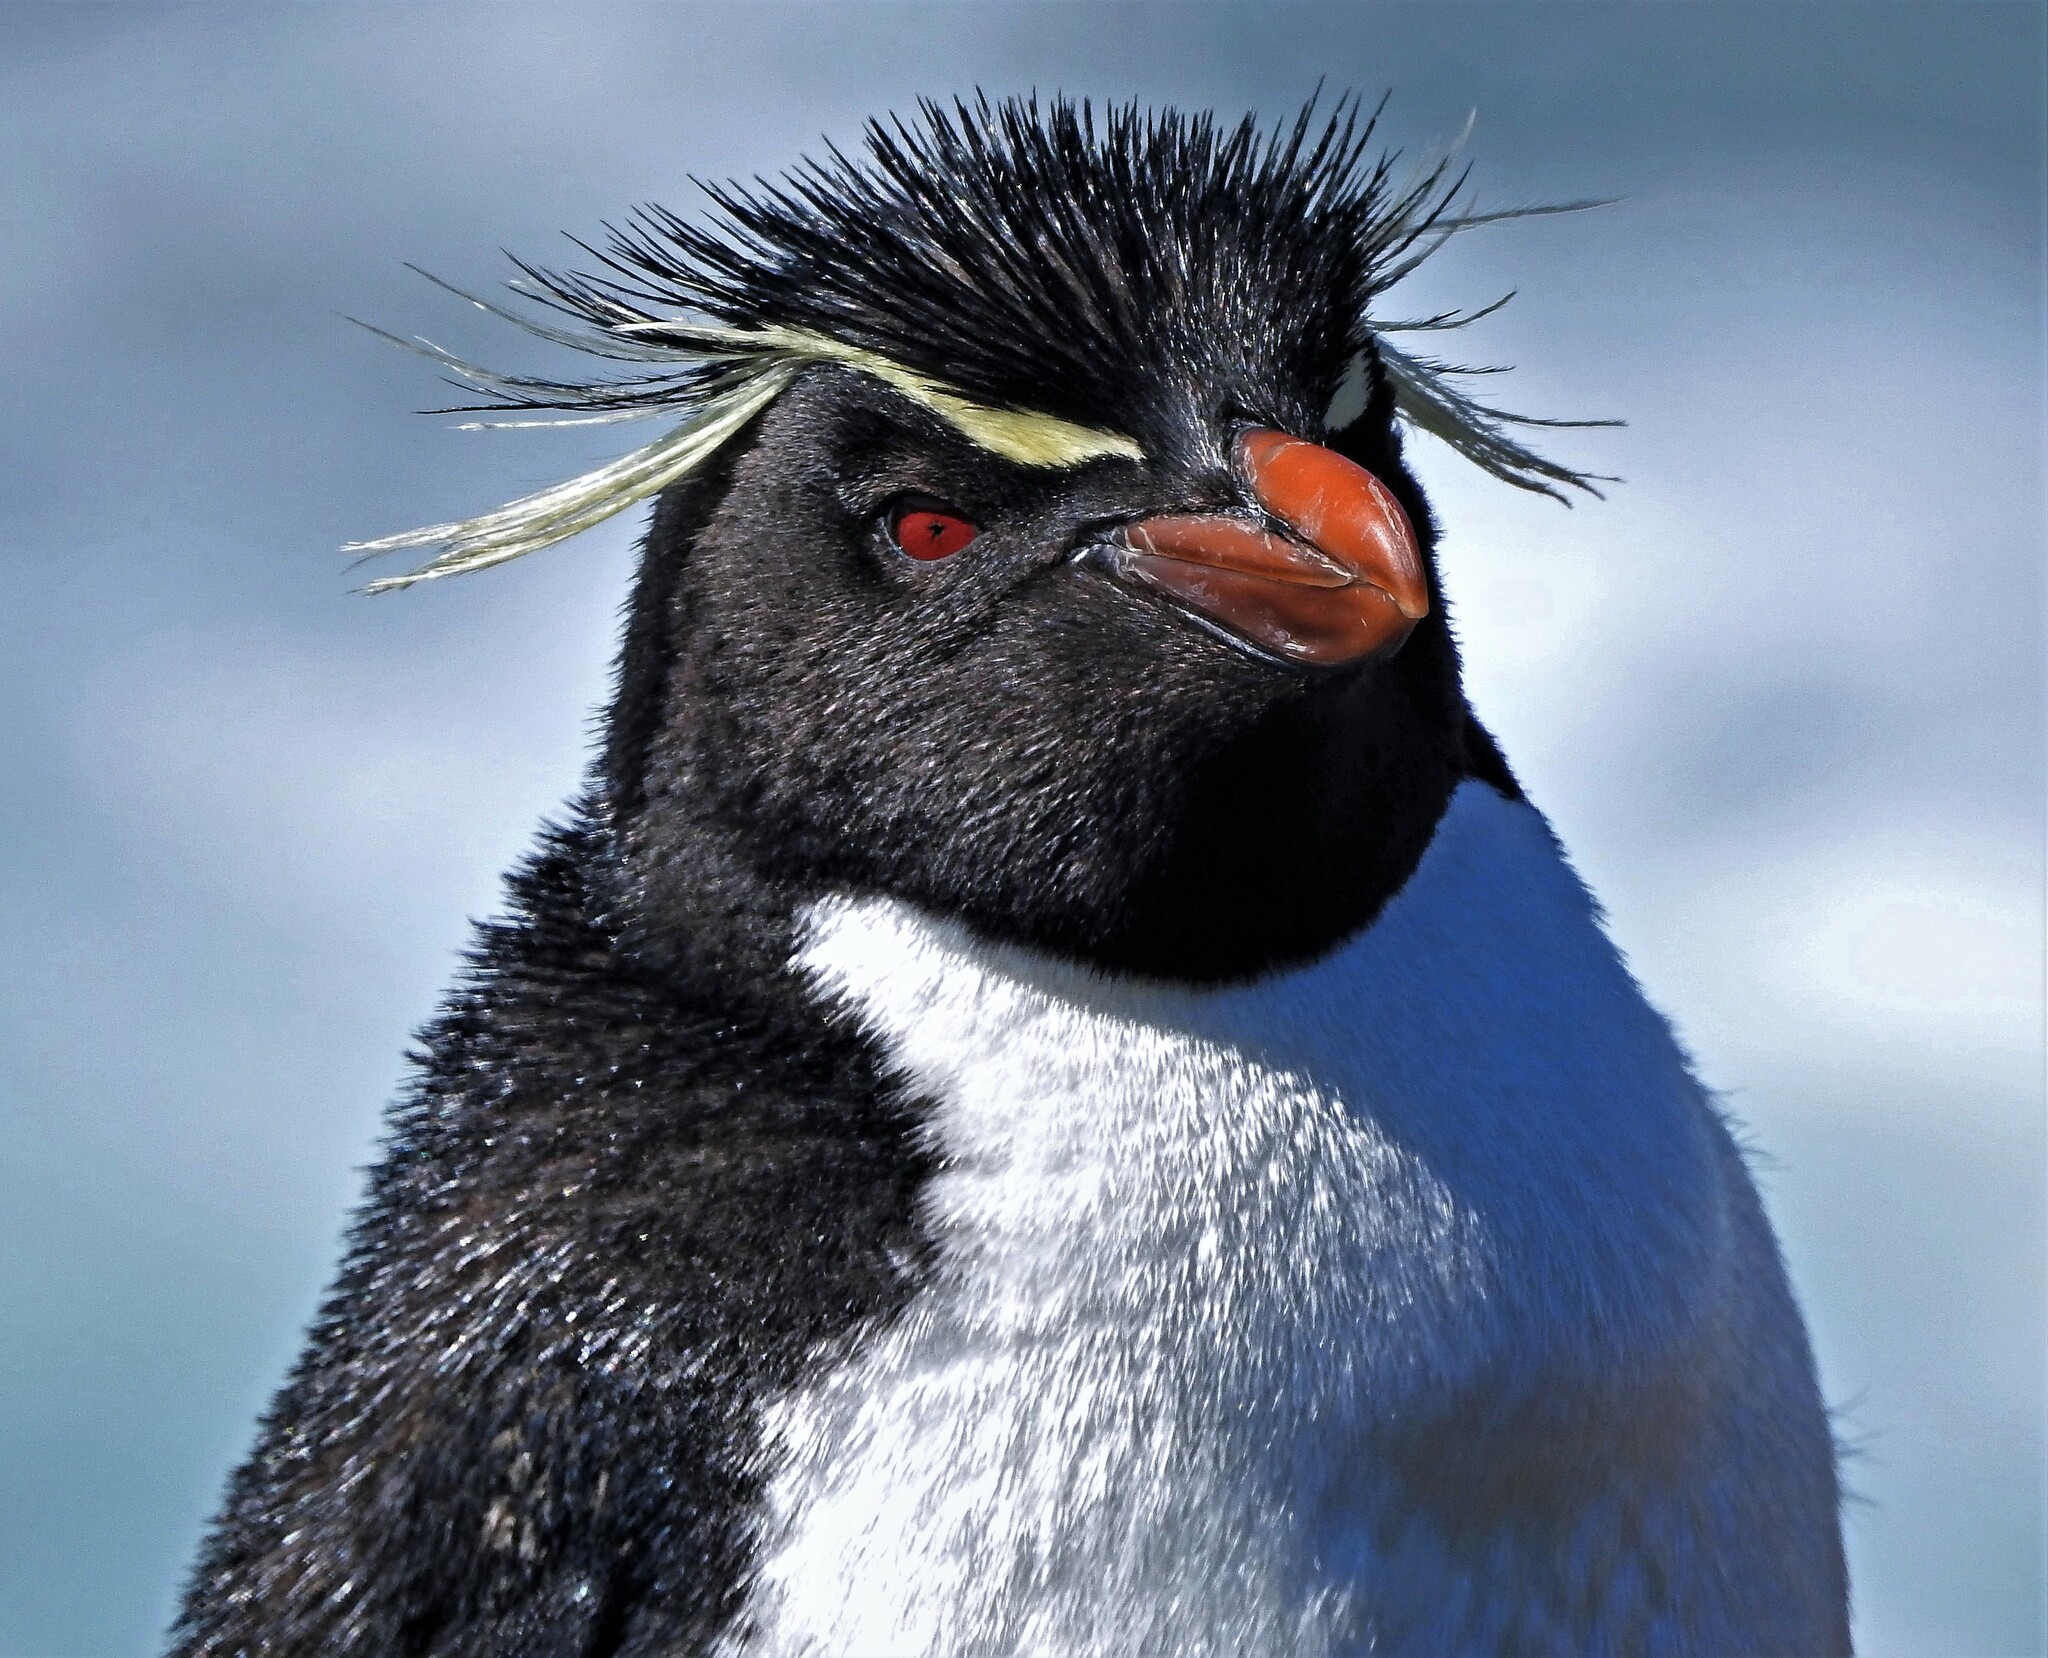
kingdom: Animalia
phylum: Chordata
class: Aves
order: Sphenisciformes
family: Spheniscidae
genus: Eudyptes
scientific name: Eudyptes chrysocome
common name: Southern rockhopper penguin
